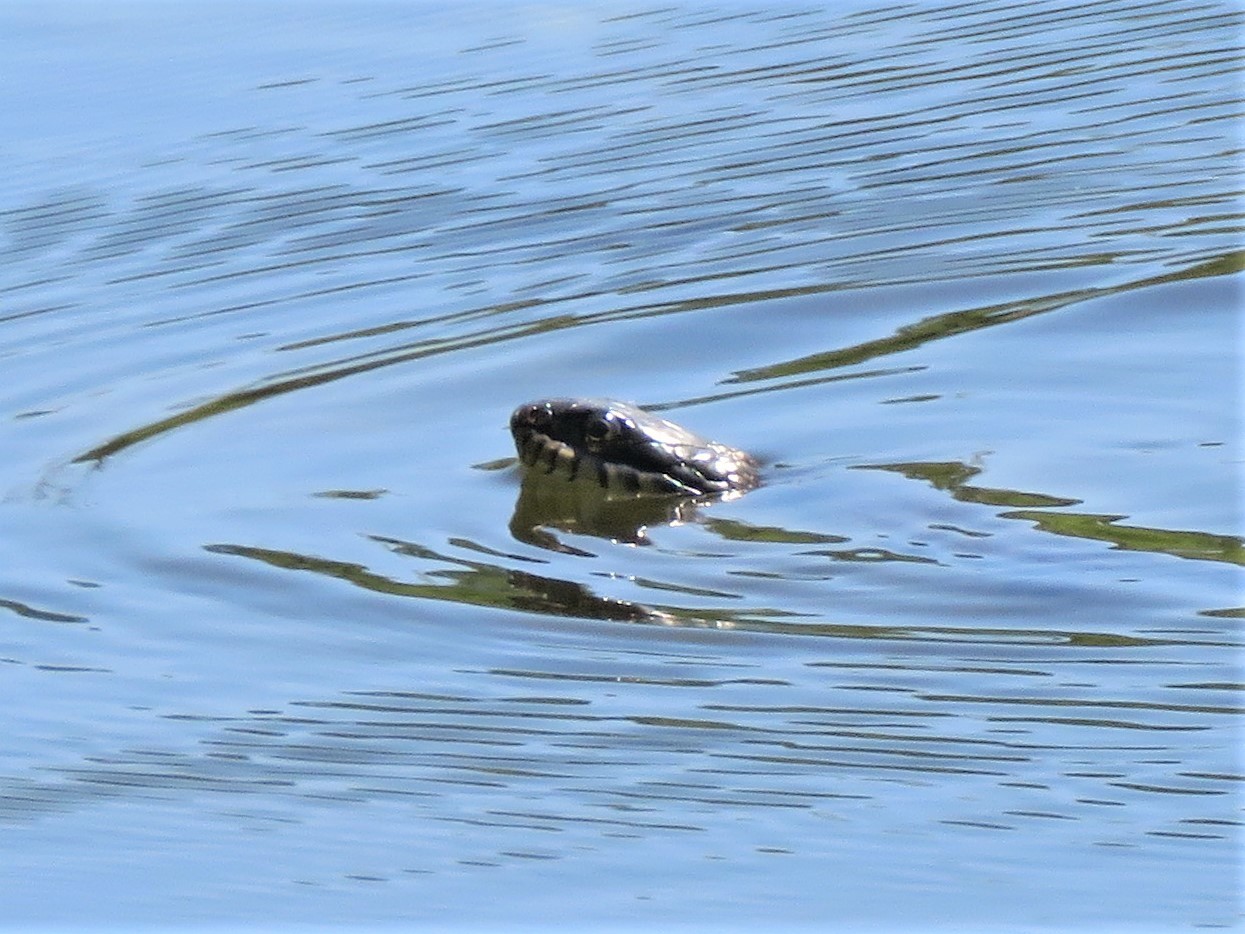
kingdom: Animalia
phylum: Chordata
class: Squamata
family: Colubridae
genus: Nerodia
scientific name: Nerodia erythrogaster
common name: Plainbelly water snake
